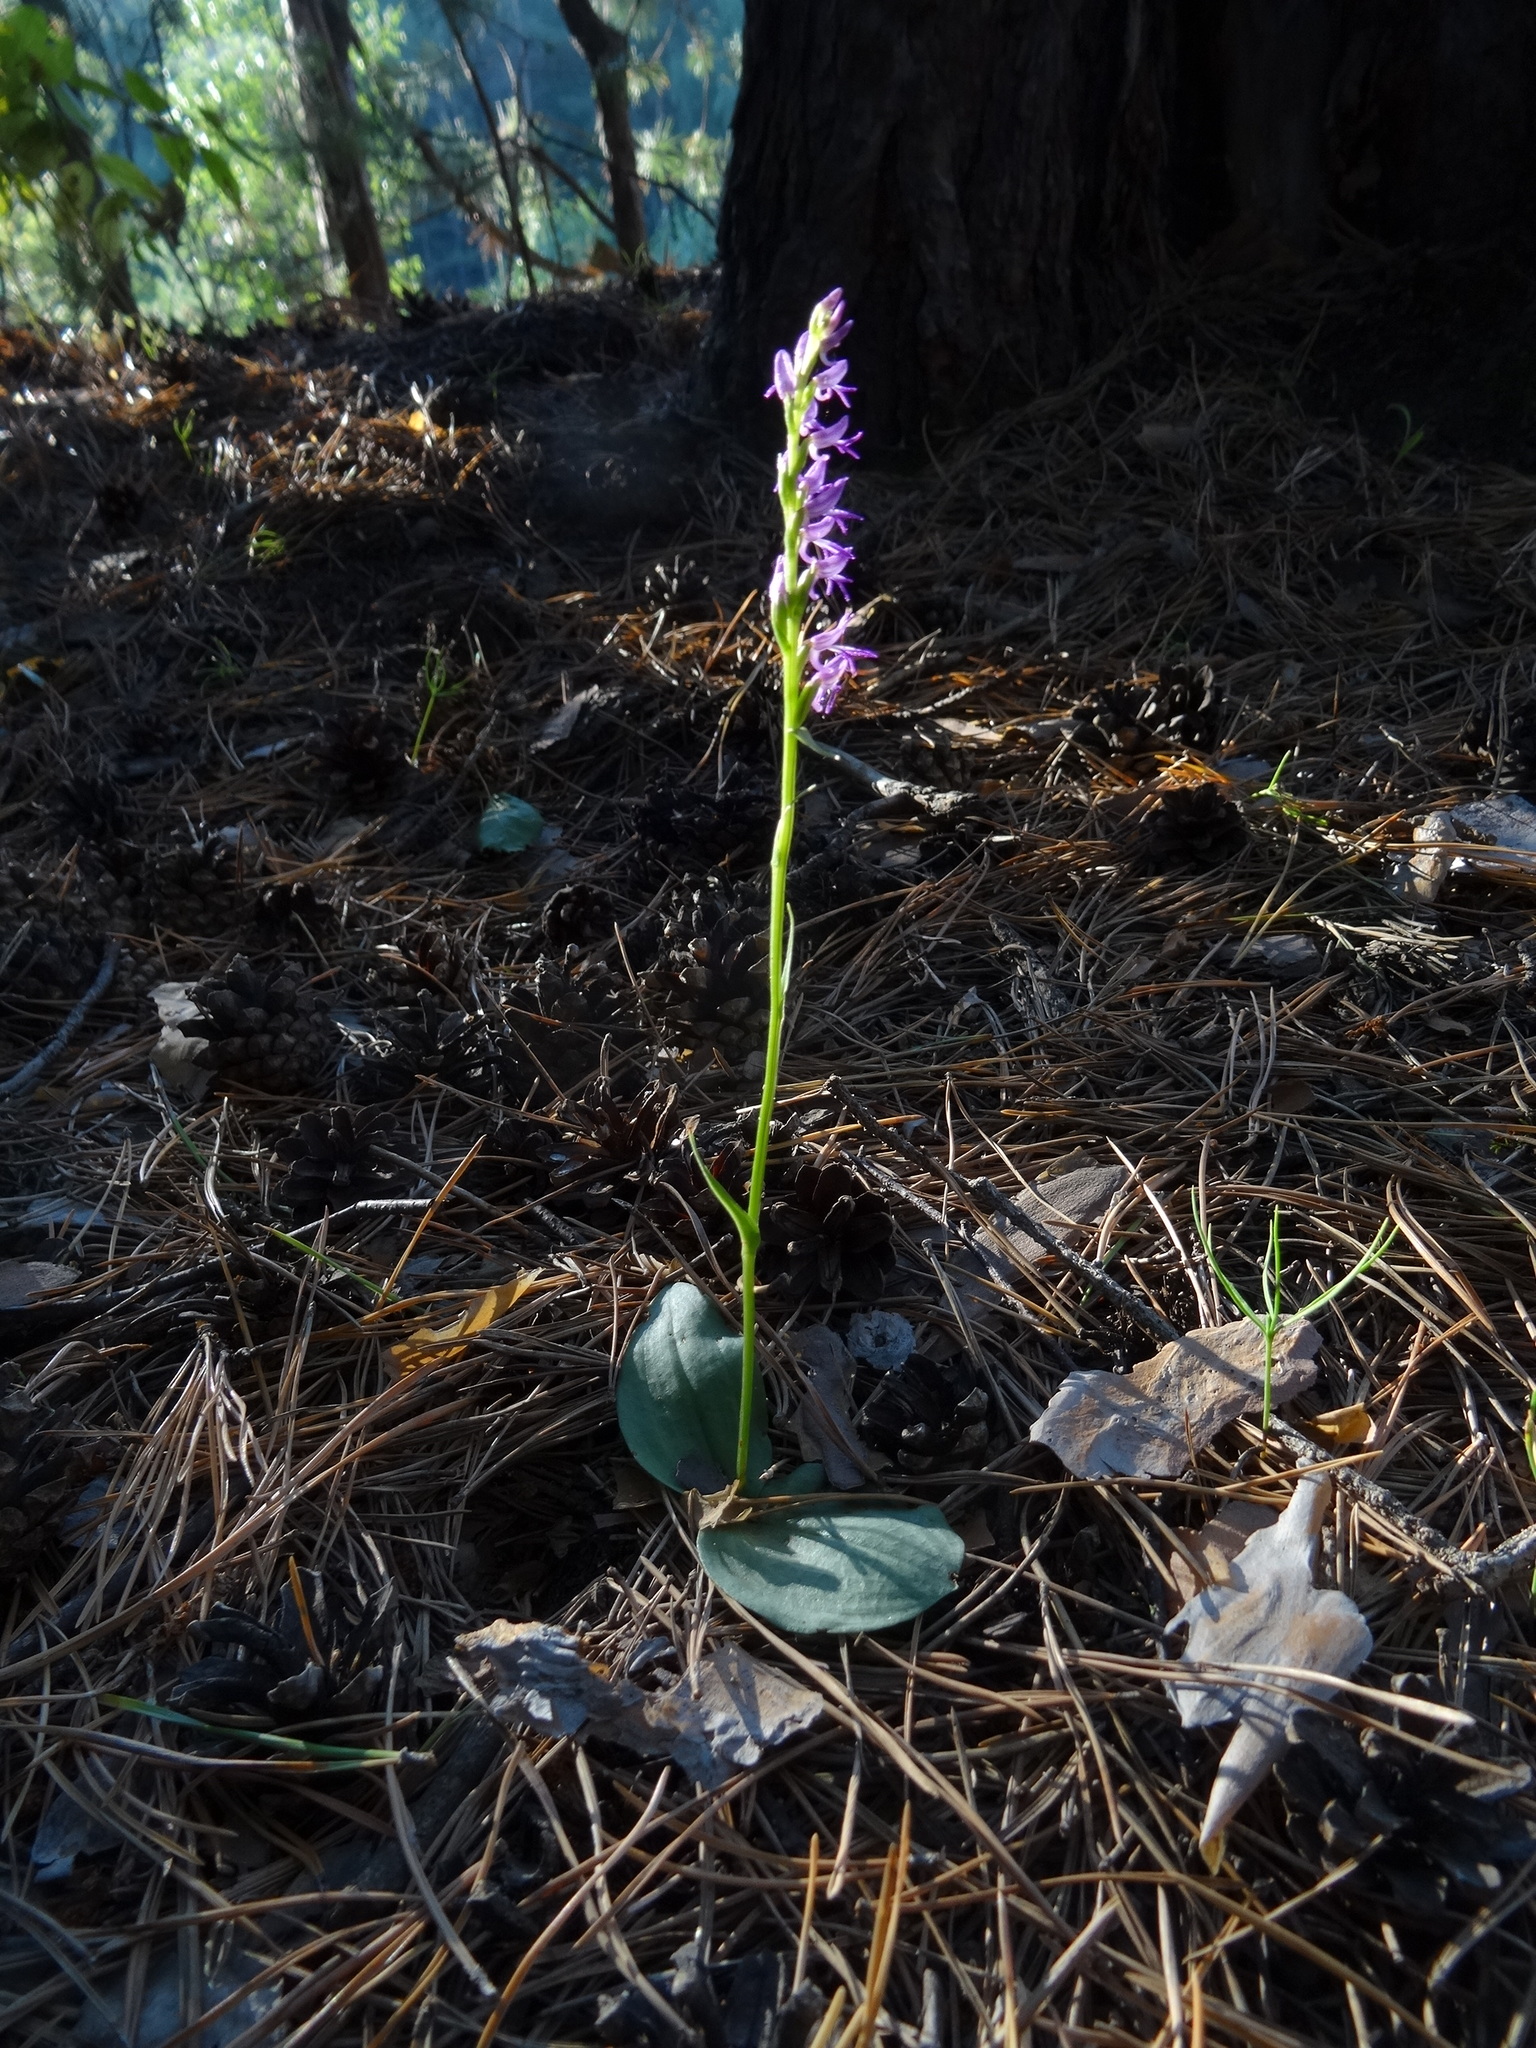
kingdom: Plantae
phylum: Tracheophyta
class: Liliopsida
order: Asparagales
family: Orchidaceae
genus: Hemipilia
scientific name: Hemipilia cucullata
